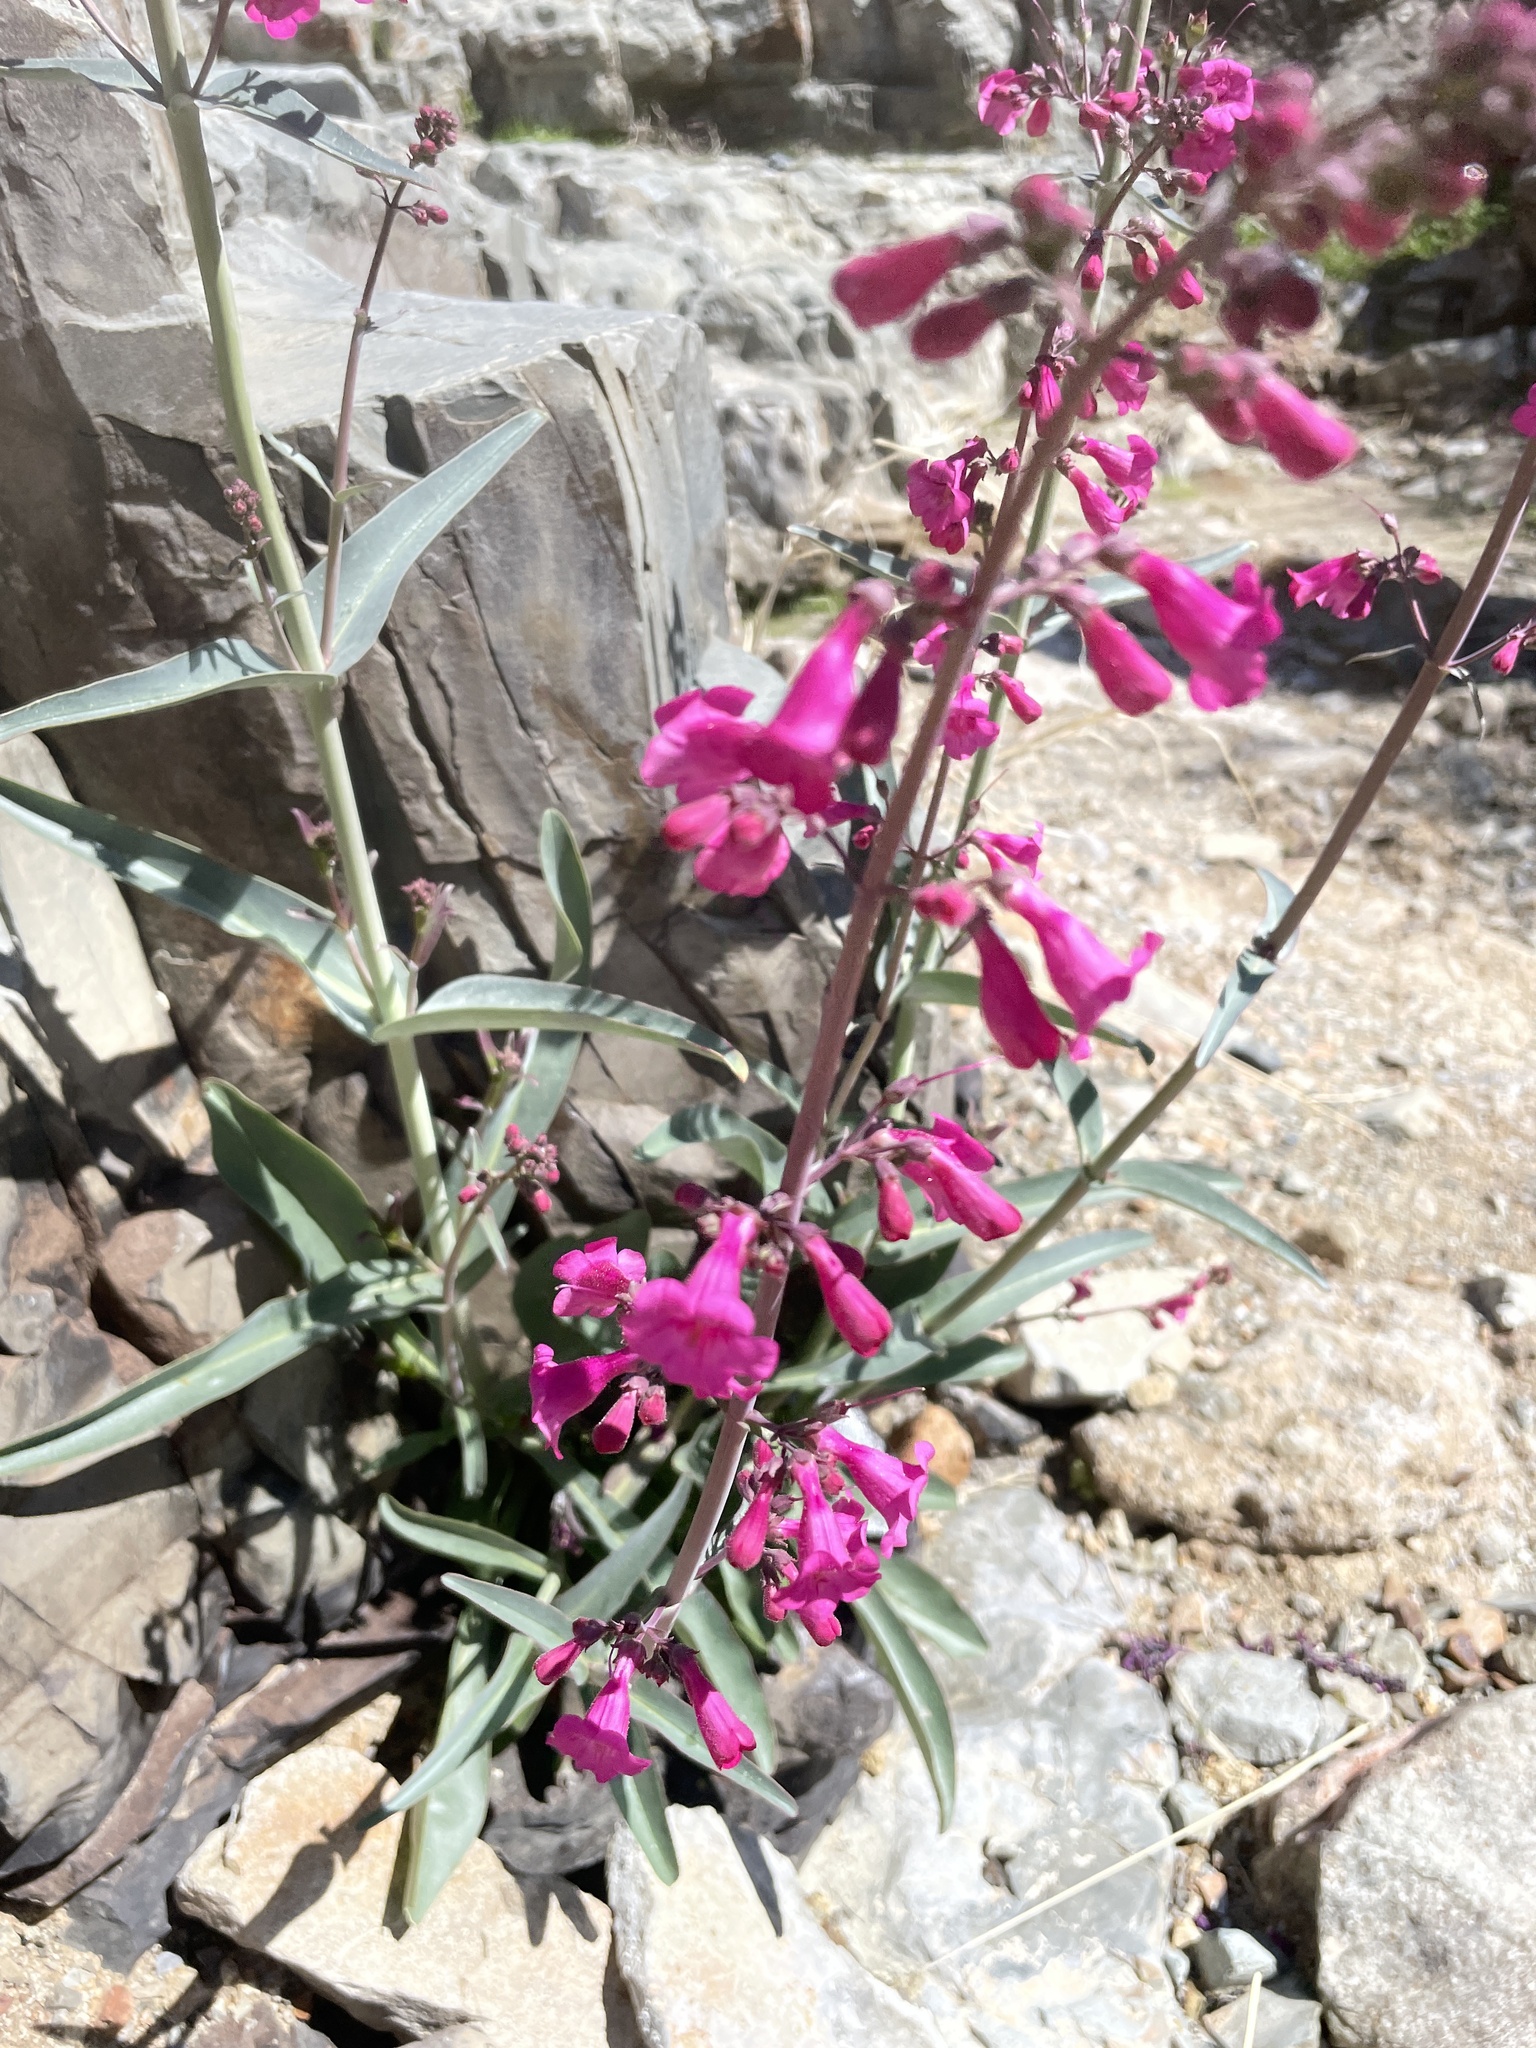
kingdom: Plantae
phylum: Tracheophyta
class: Magnoliopsida
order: Lamiales
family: Plantaginaceae
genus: Penstemon
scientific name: Penstemon parryi
